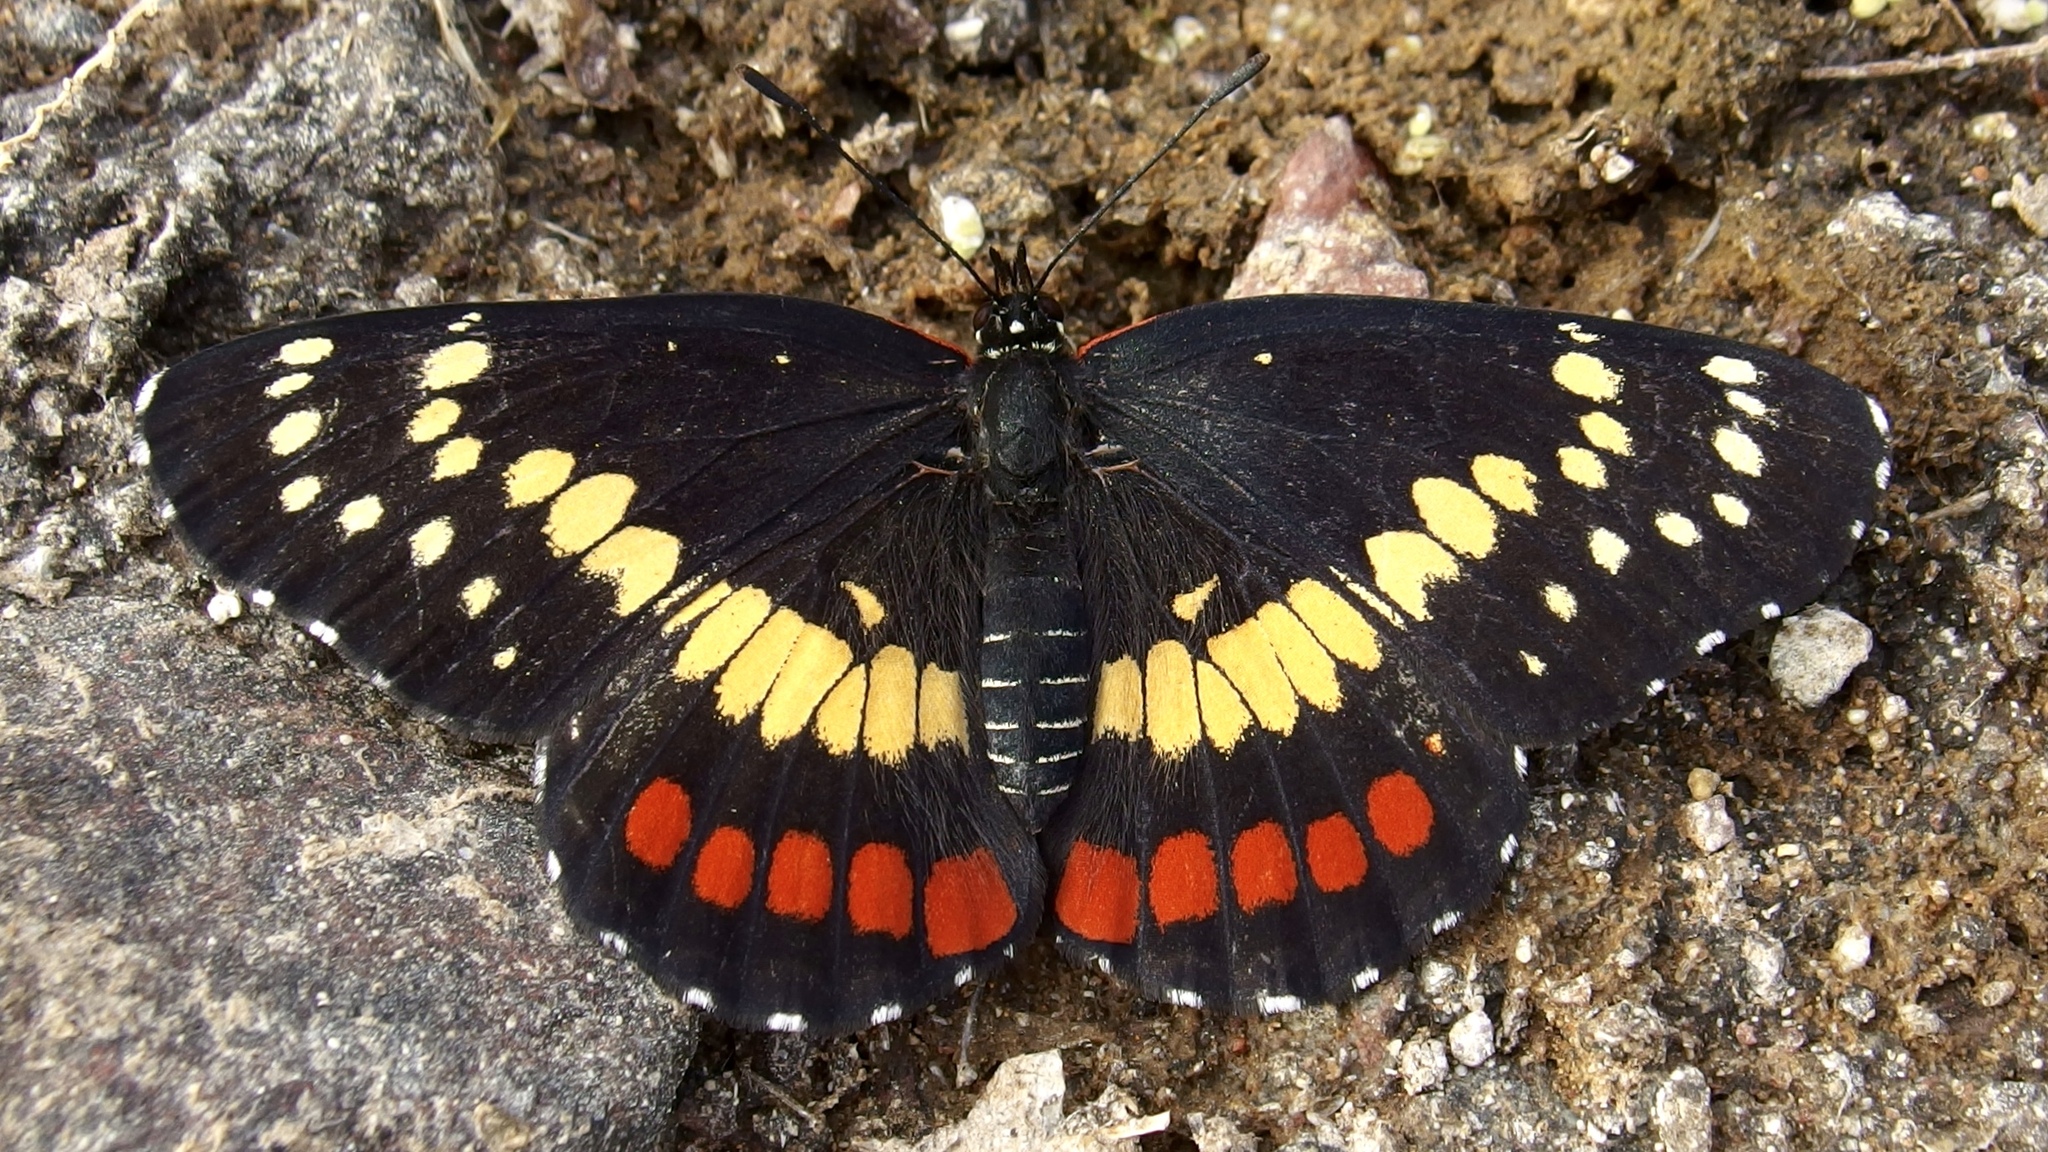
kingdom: Animalia
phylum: Arthropoda
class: Insecta
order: Lepidoptera
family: Nymphalidae
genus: Chlosyne
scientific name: Chlosyne eumeda
